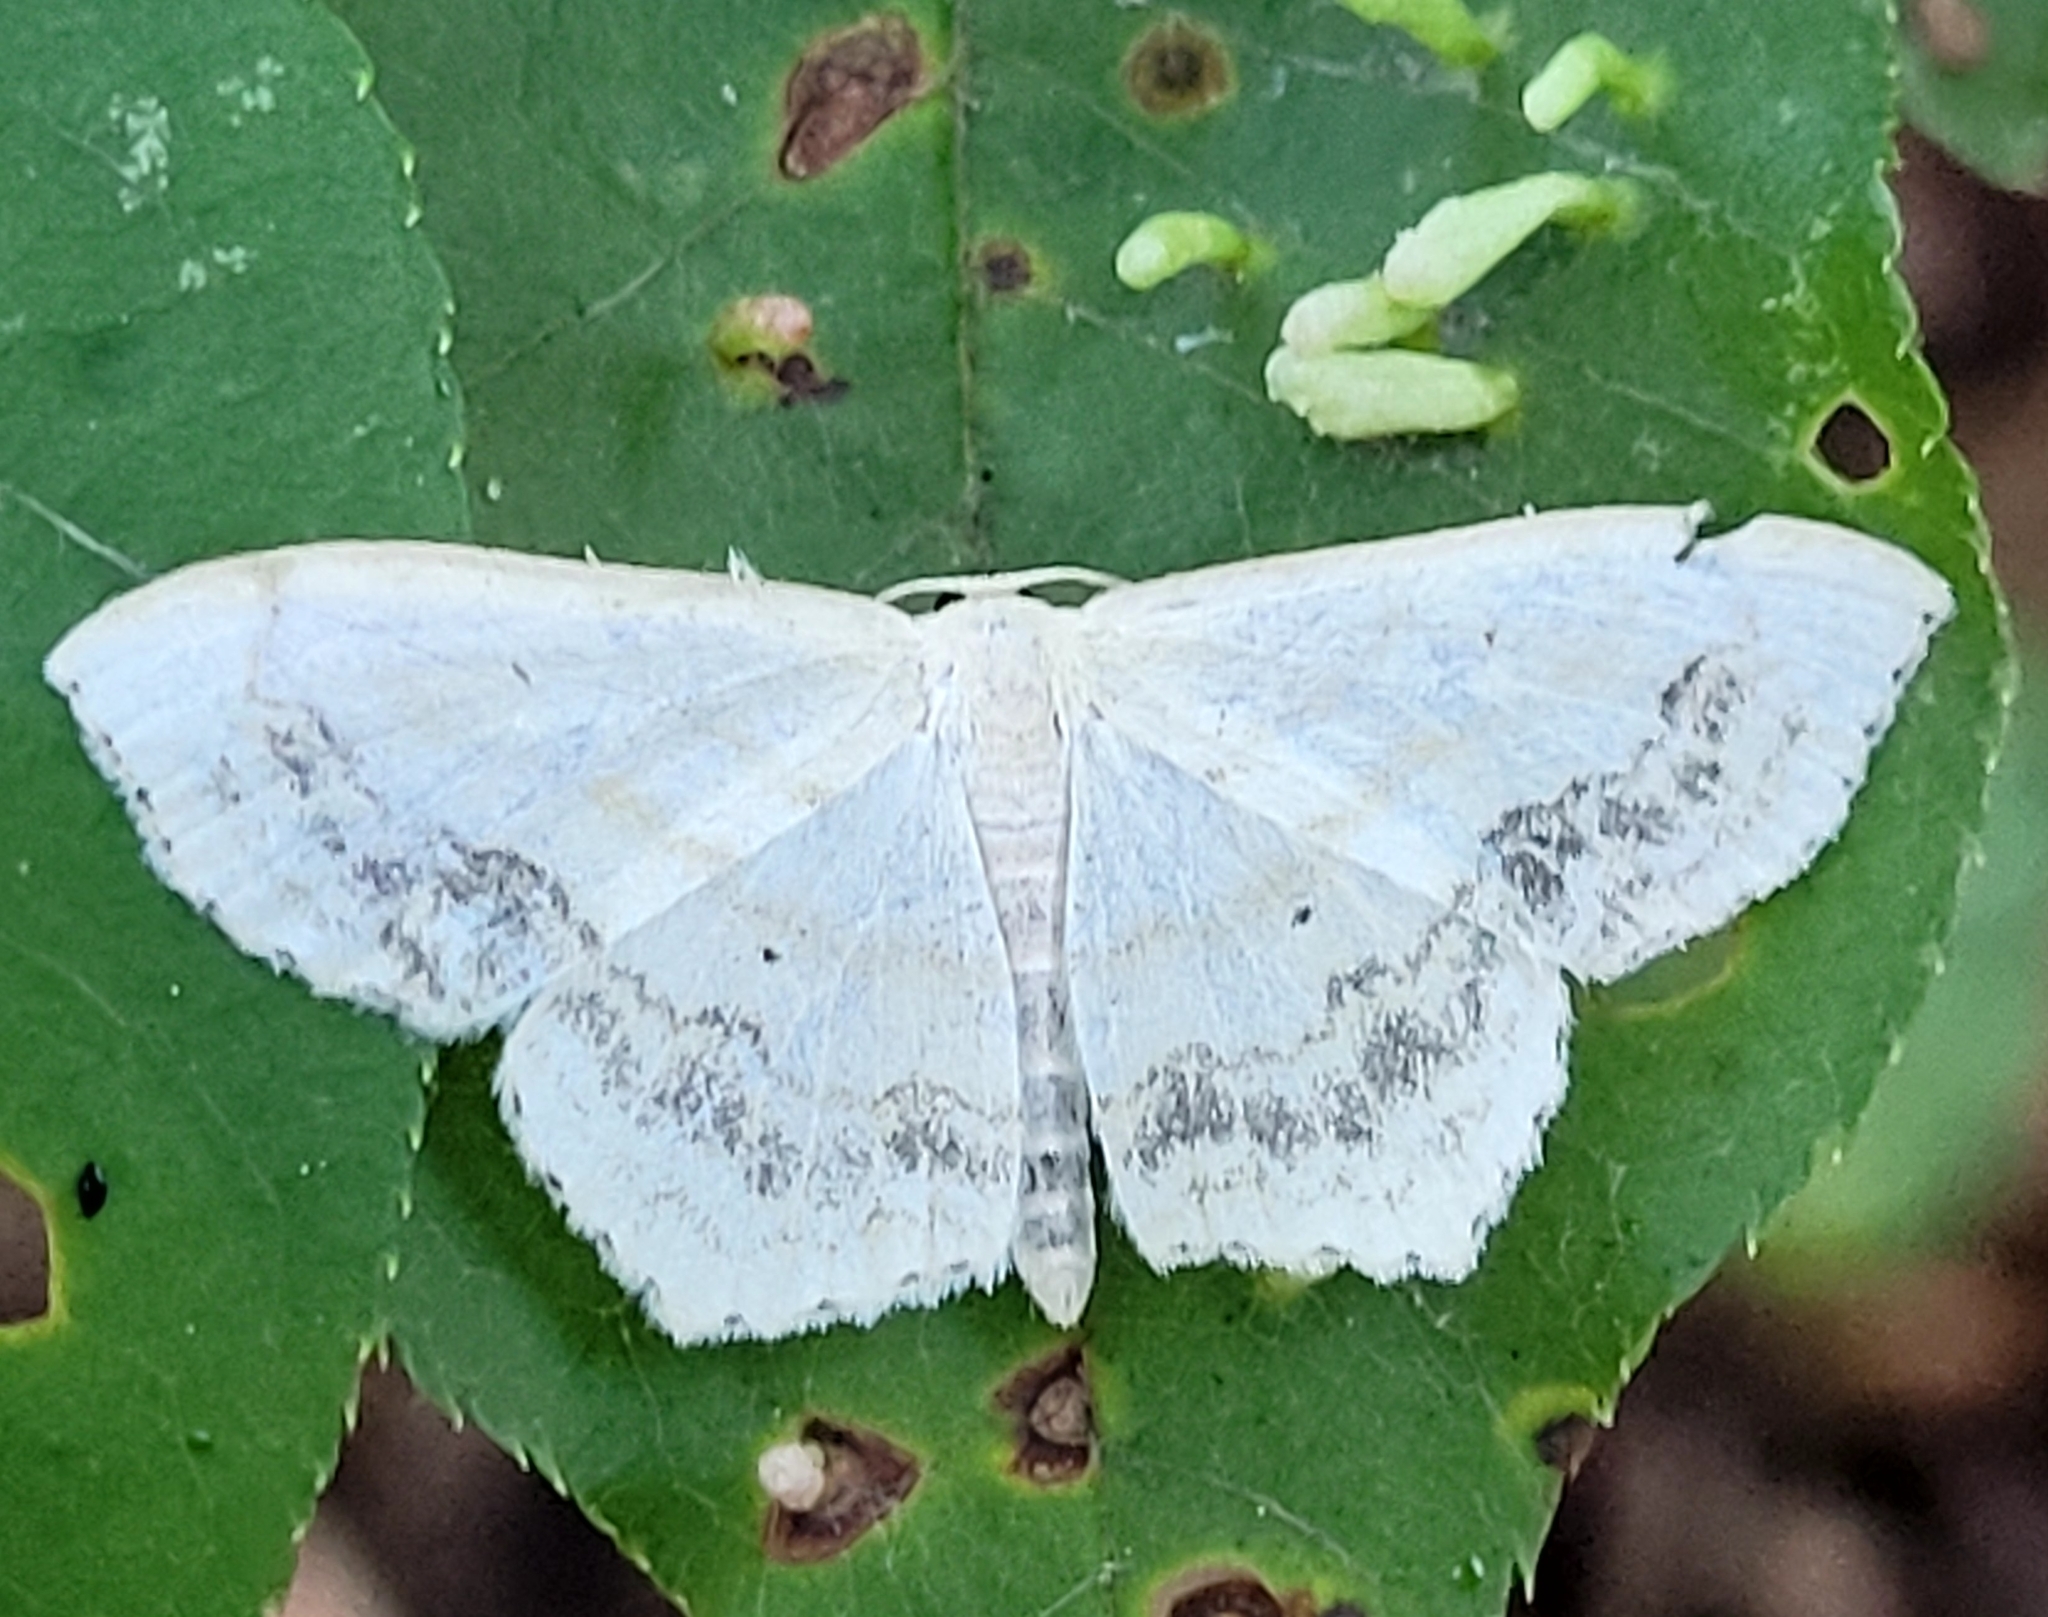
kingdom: Animalia
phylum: Arthropoda
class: Insecta
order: Lepidoptera
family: Geometridae
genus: Scopula
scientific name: Scopula limboundata
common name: Large lace border
